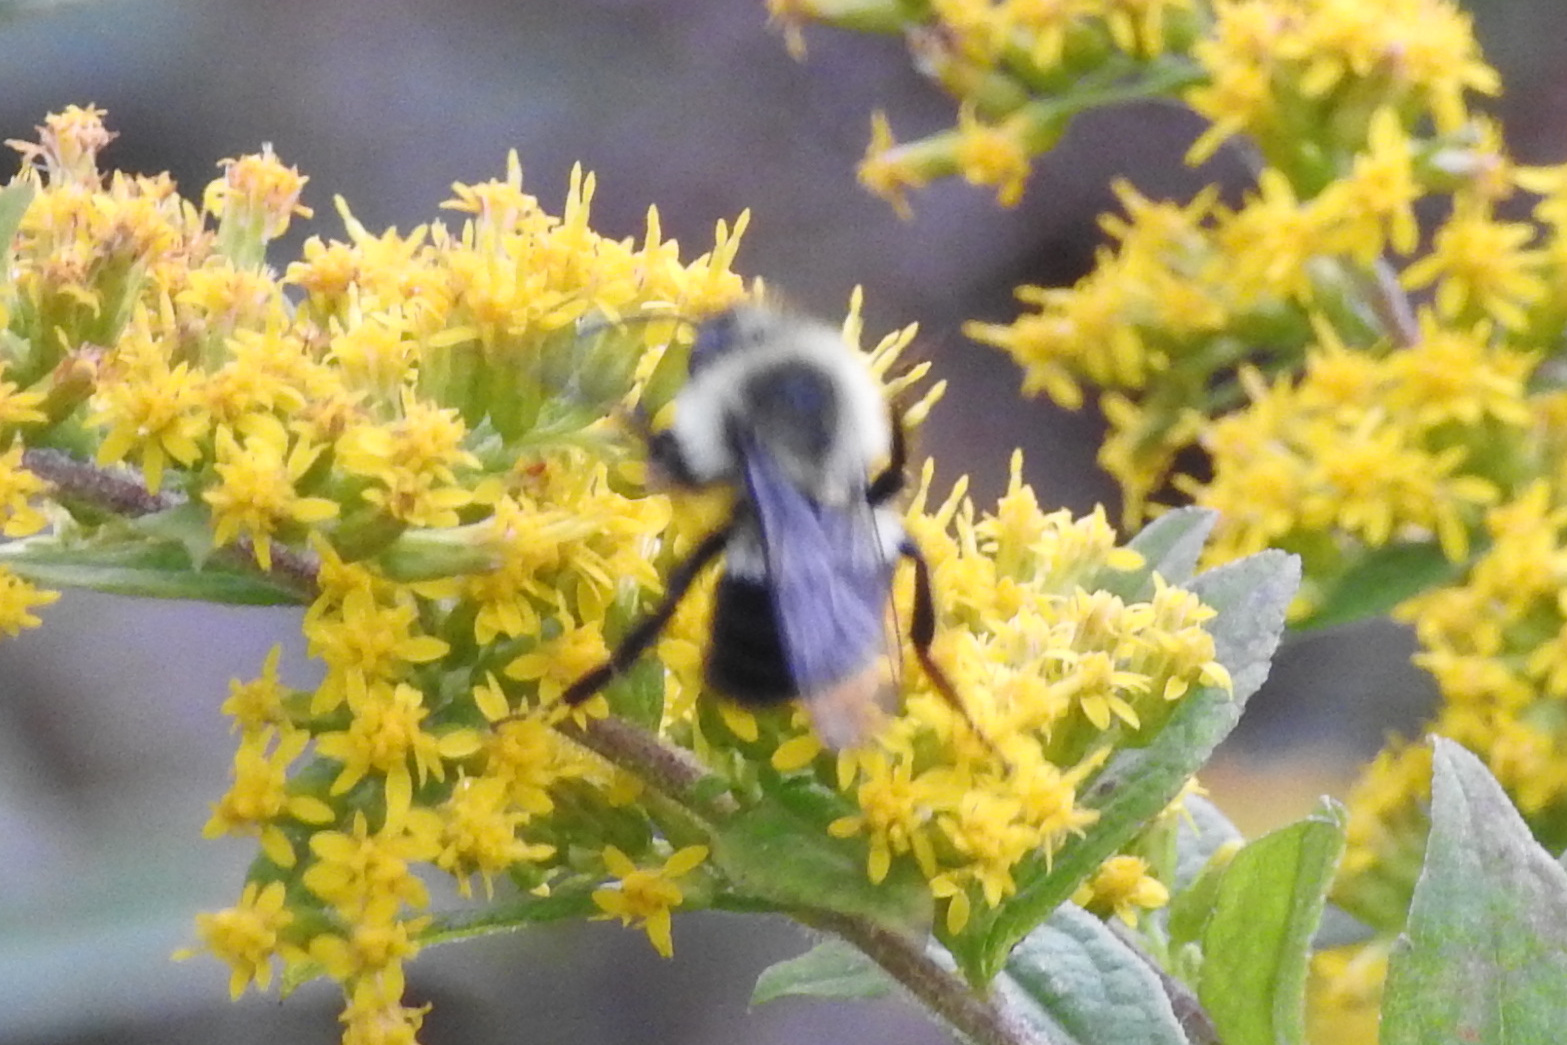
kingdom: Animalia
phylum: Arthropoda
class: Insecta
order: Hymenoptera
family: Apidae
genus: Bombus
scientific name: Bombus impatiens
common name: Common eastern bumble bee
